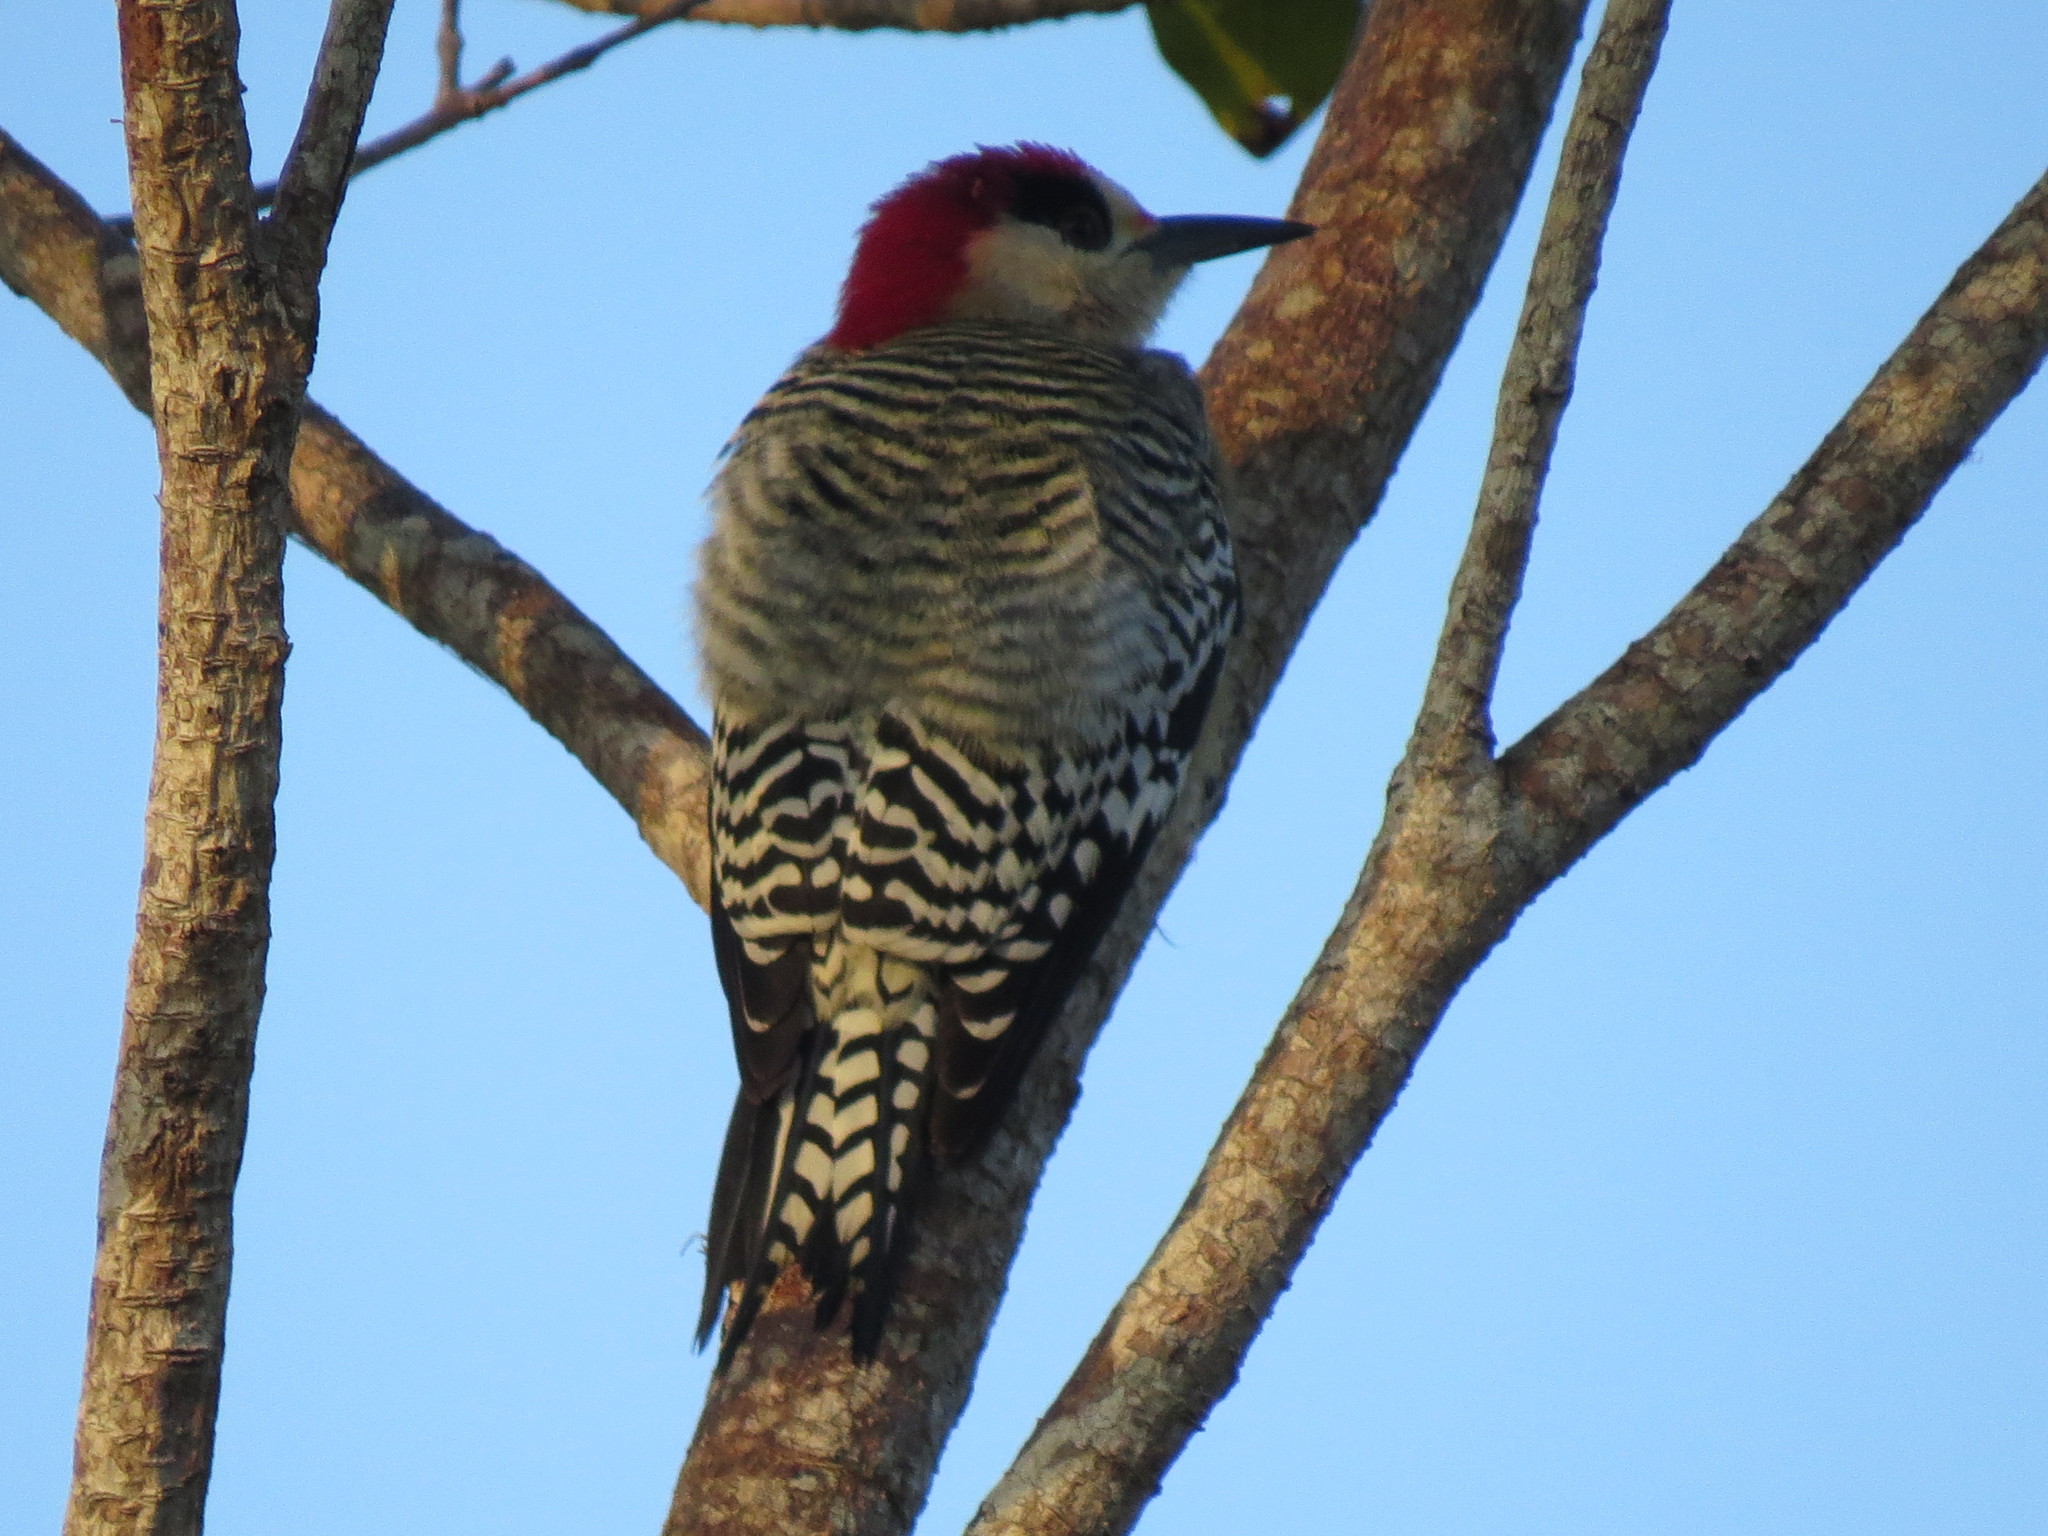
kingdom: Animalia
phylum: Chordata
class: Aves
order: Piciformes
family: Picidae
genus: Melanerpes
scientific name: Melanerpes superciliaris
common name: West indian woodpecker
